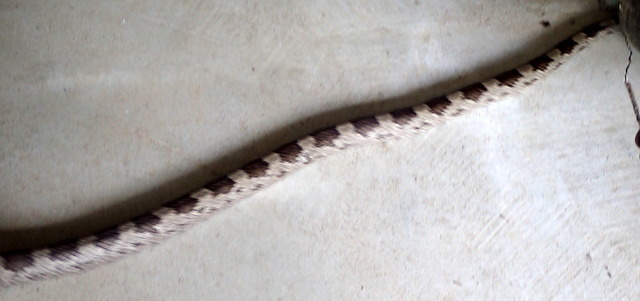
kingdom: Animalia
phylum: Chordata
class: Squamata
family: Colubridae
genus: Pantherophis
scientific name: Pantherophis spiloides
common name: Gray rat snake
